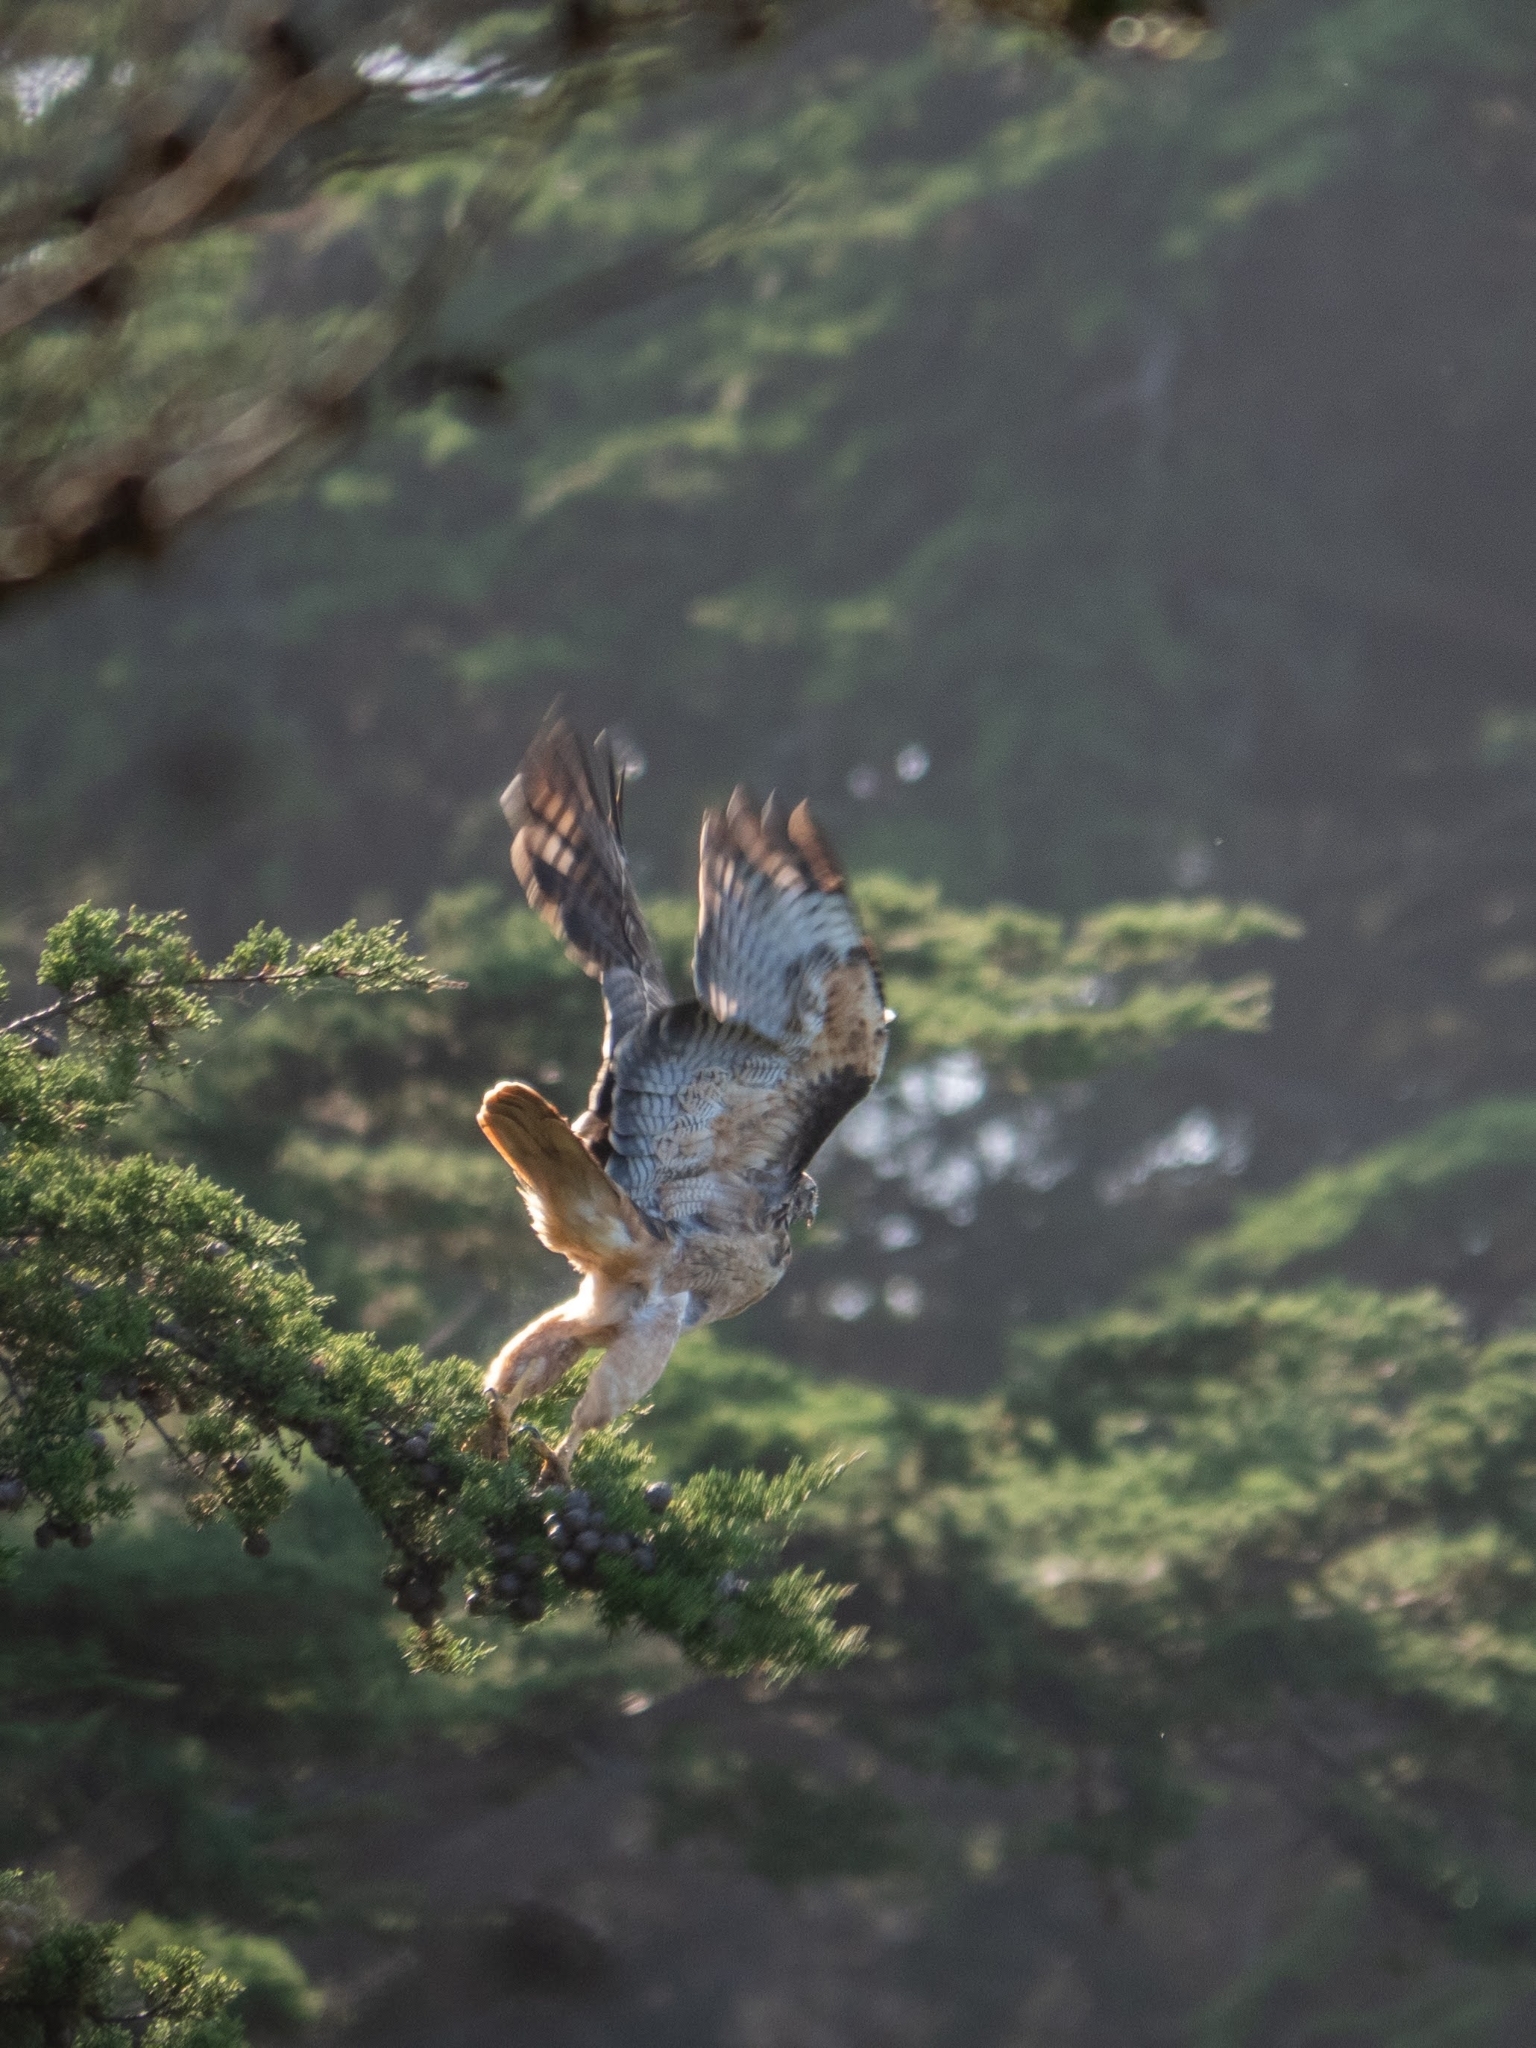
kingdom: Animalia
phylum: Chordata
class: Aves
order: Accipitriformes
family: Accipitridae
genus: Buteo
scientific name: Buteo jamaicensis
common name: Red-tailed hawk
